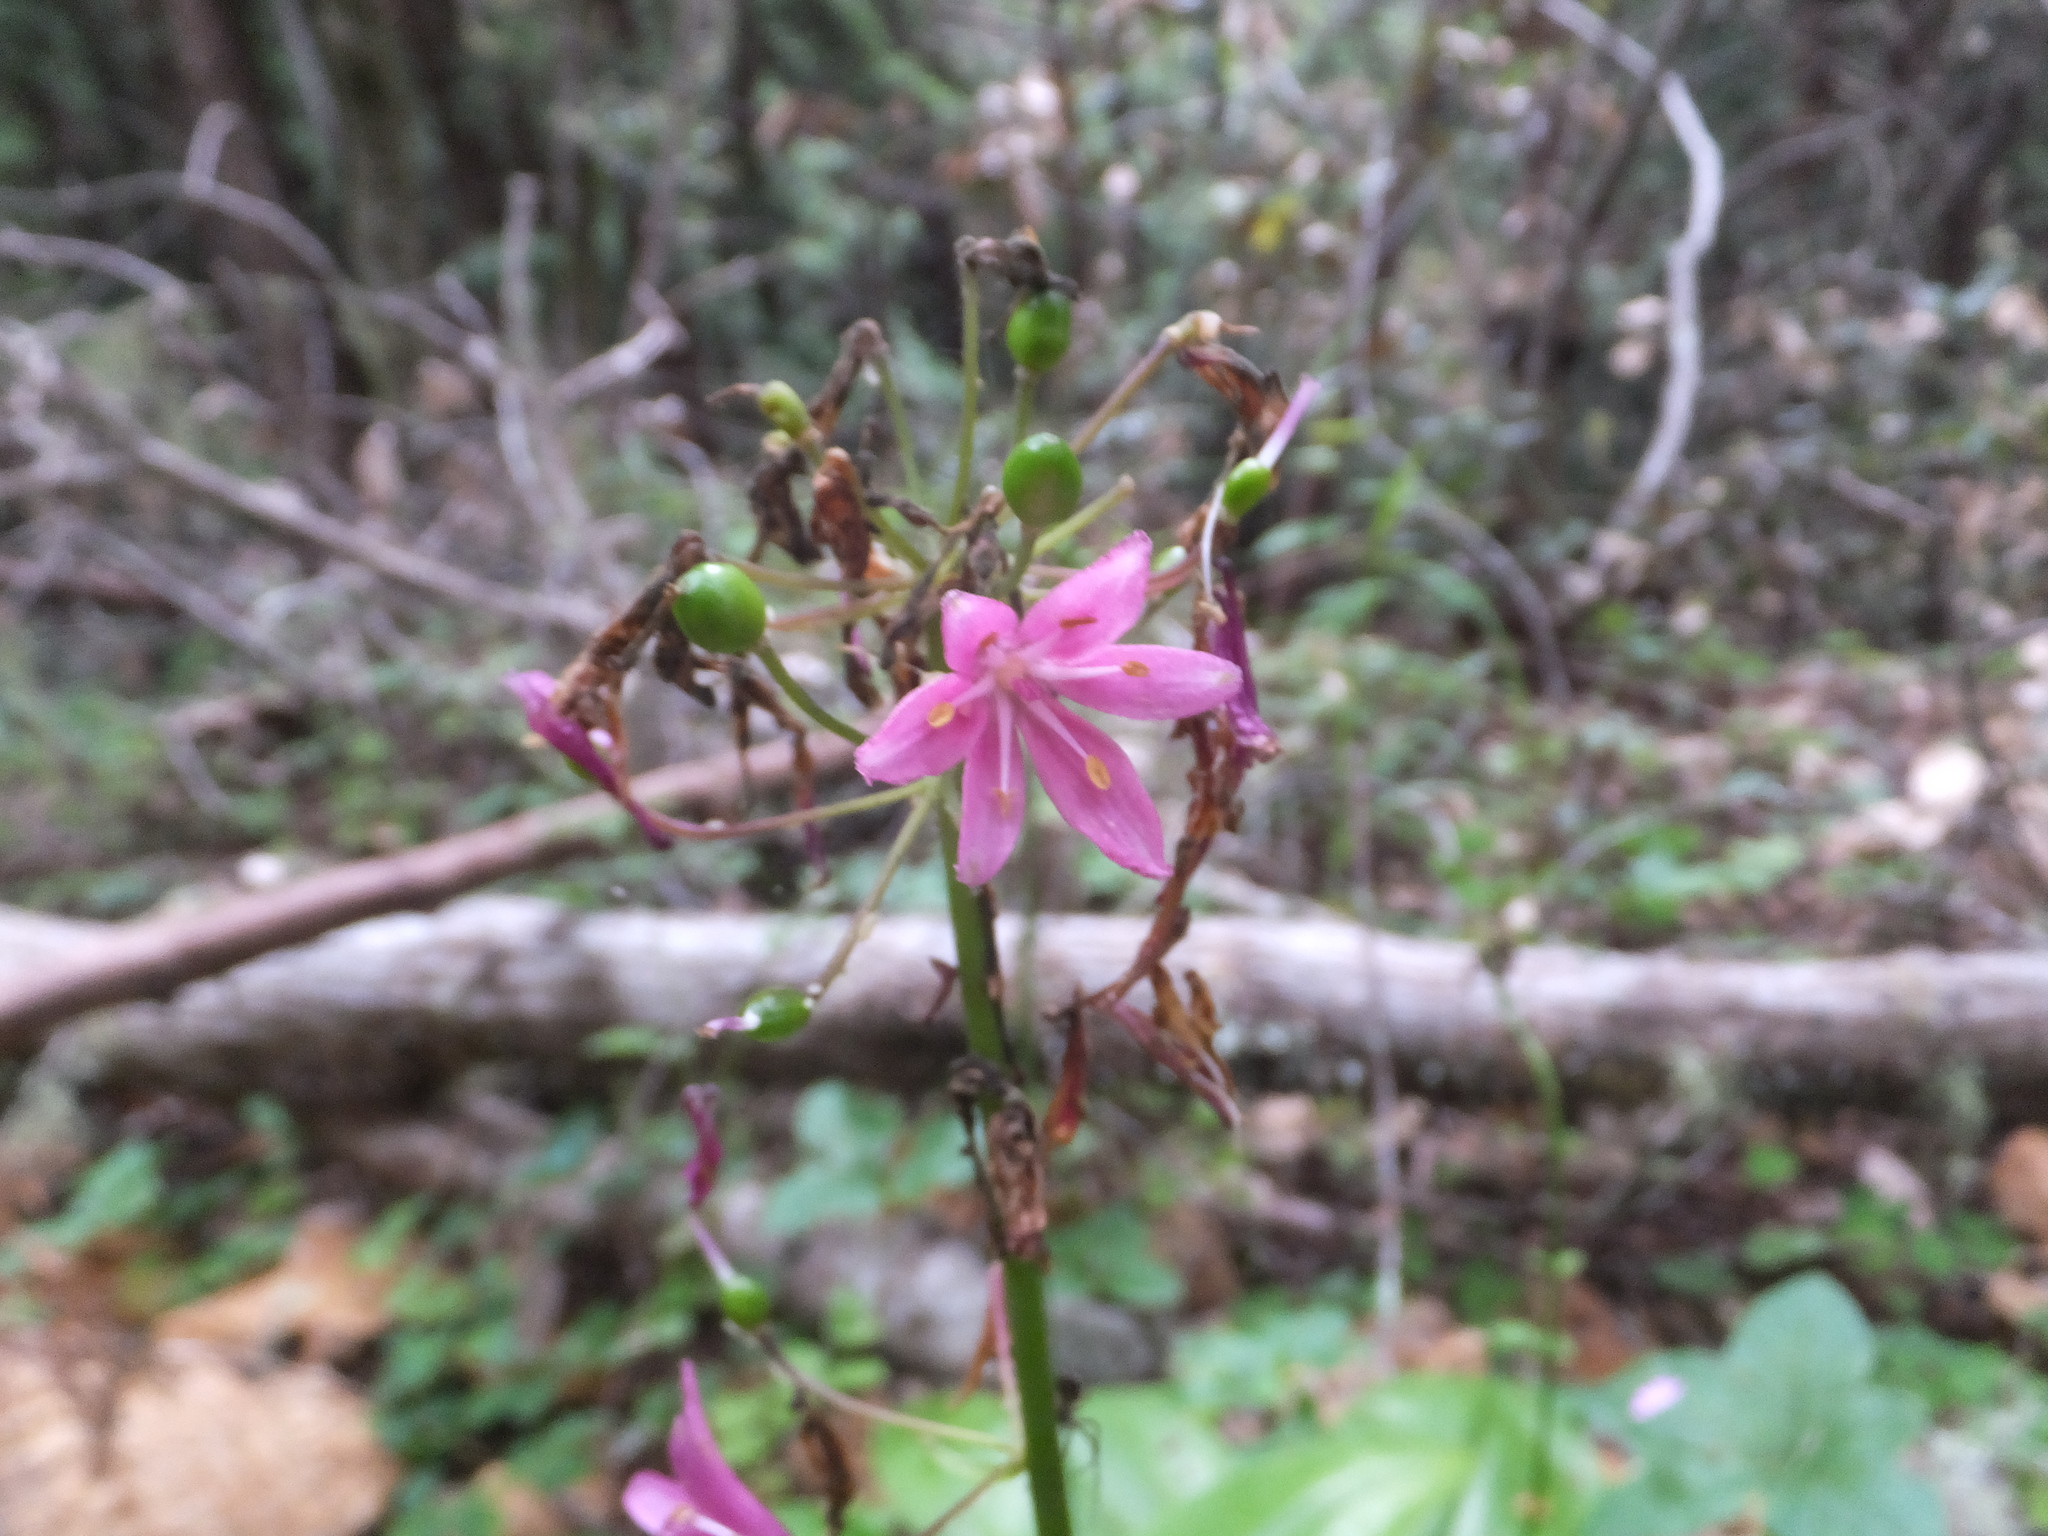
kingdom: Plantae
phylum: Tracheophyta
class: Liliopsida
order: Liliales
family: Liliaceae
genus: Clintonia
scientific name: Clintonia andrewsiana
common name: Red clintonia
